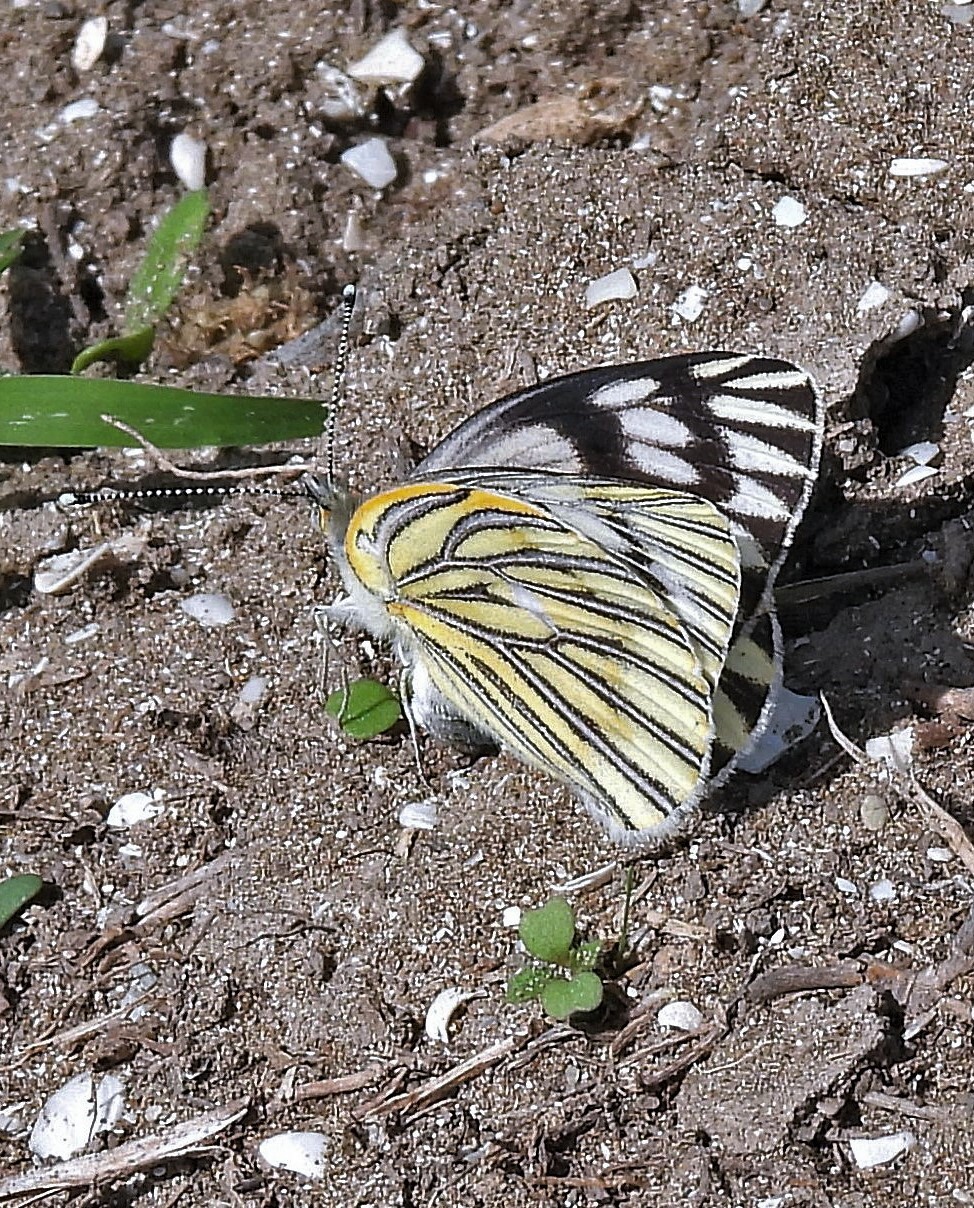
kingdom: Animalia
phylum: Arthropoda
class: Insecta
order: Lepidoptera
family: Pieridae
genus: Tatochila
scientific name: Tatochila mercedis
